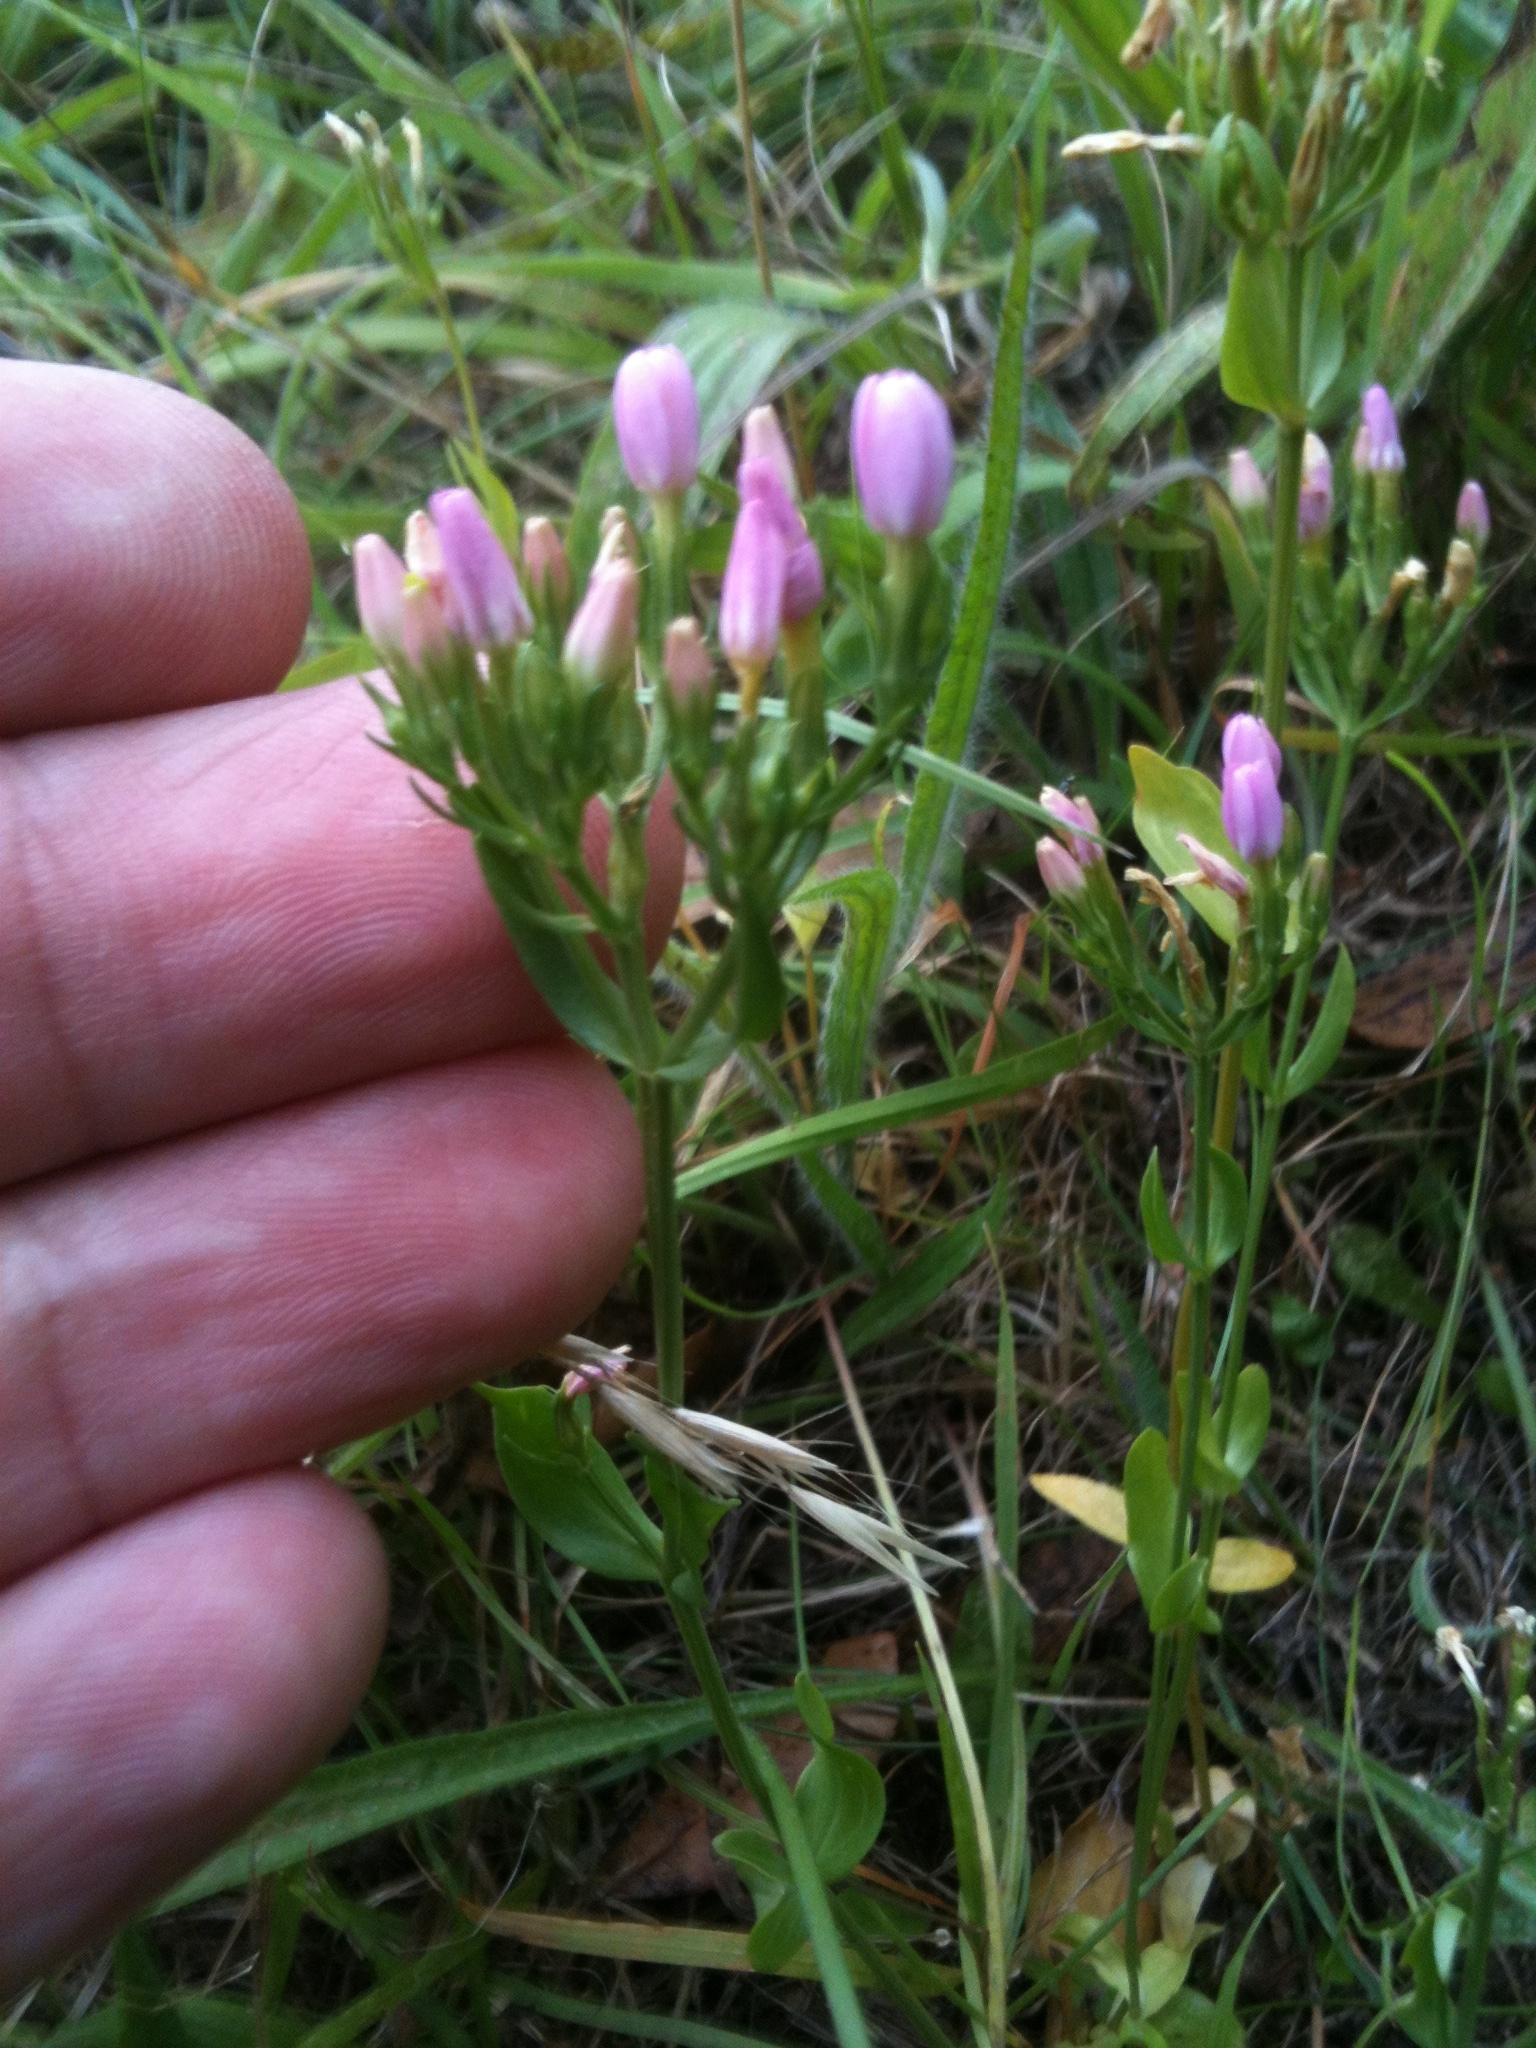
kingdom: Plantae
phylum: Tracheophyta
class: Magnoliopsida
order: Gentianales
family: Gentianaceae
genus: Centaurium
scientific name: Centaurium erythraea
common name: Common centaury
